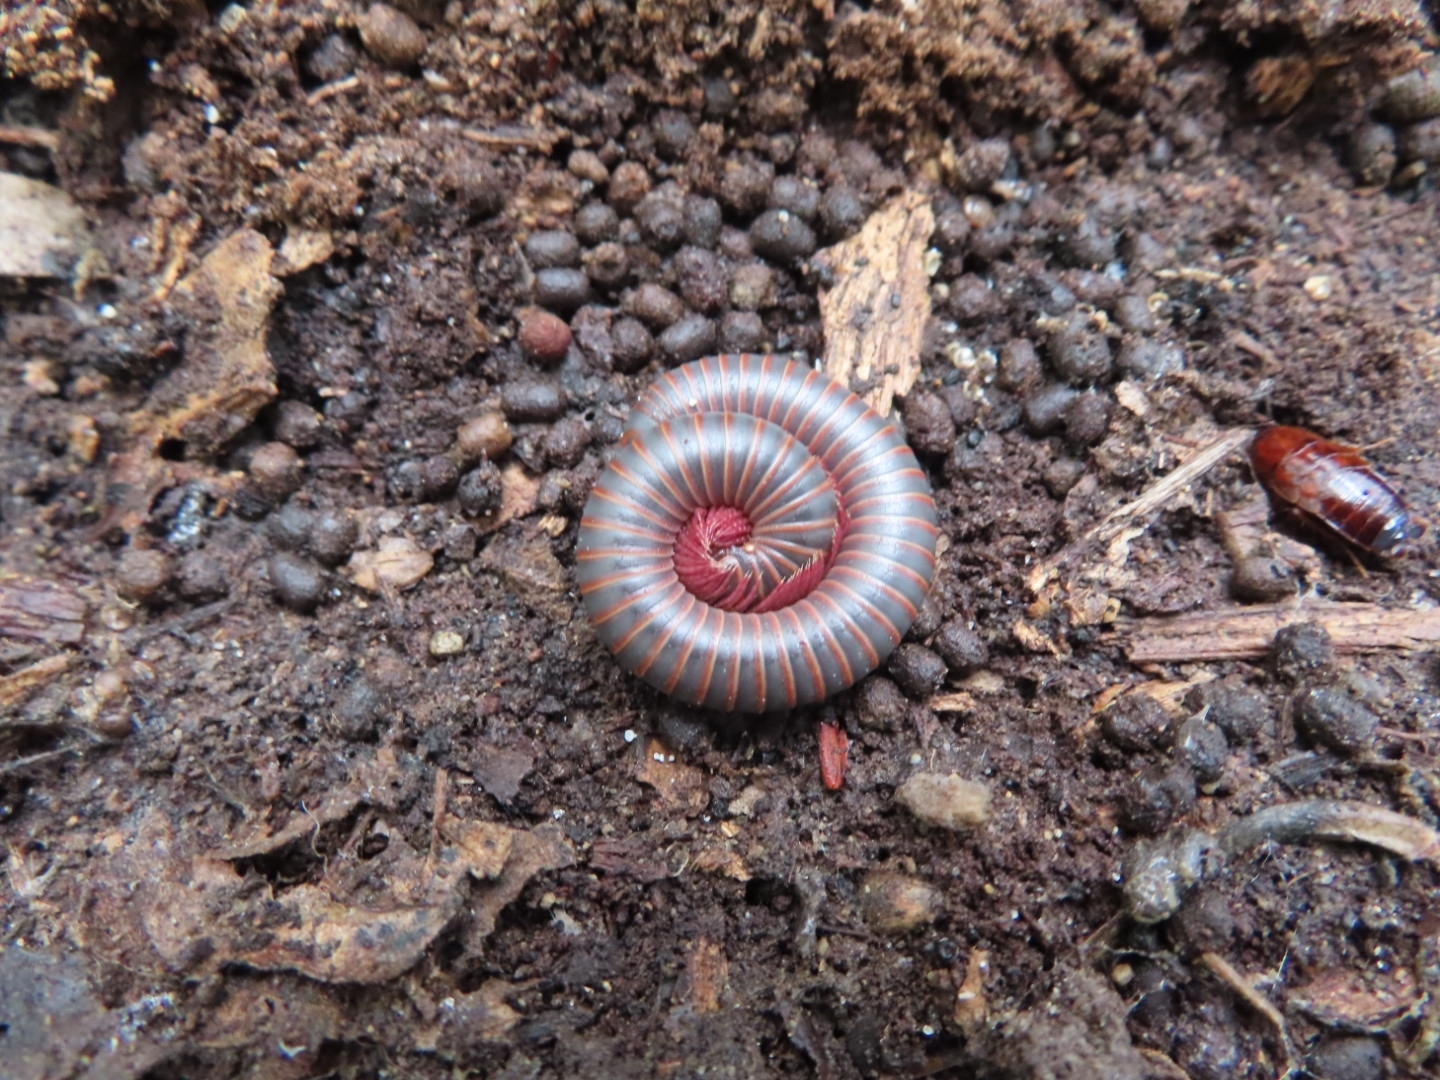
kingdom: Animalia
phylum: Arthropoda
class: Diplopoda
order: Spirobolida
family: Spirobolidae
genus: Narceus
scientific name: Narceus americanus
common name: American giant millipede
